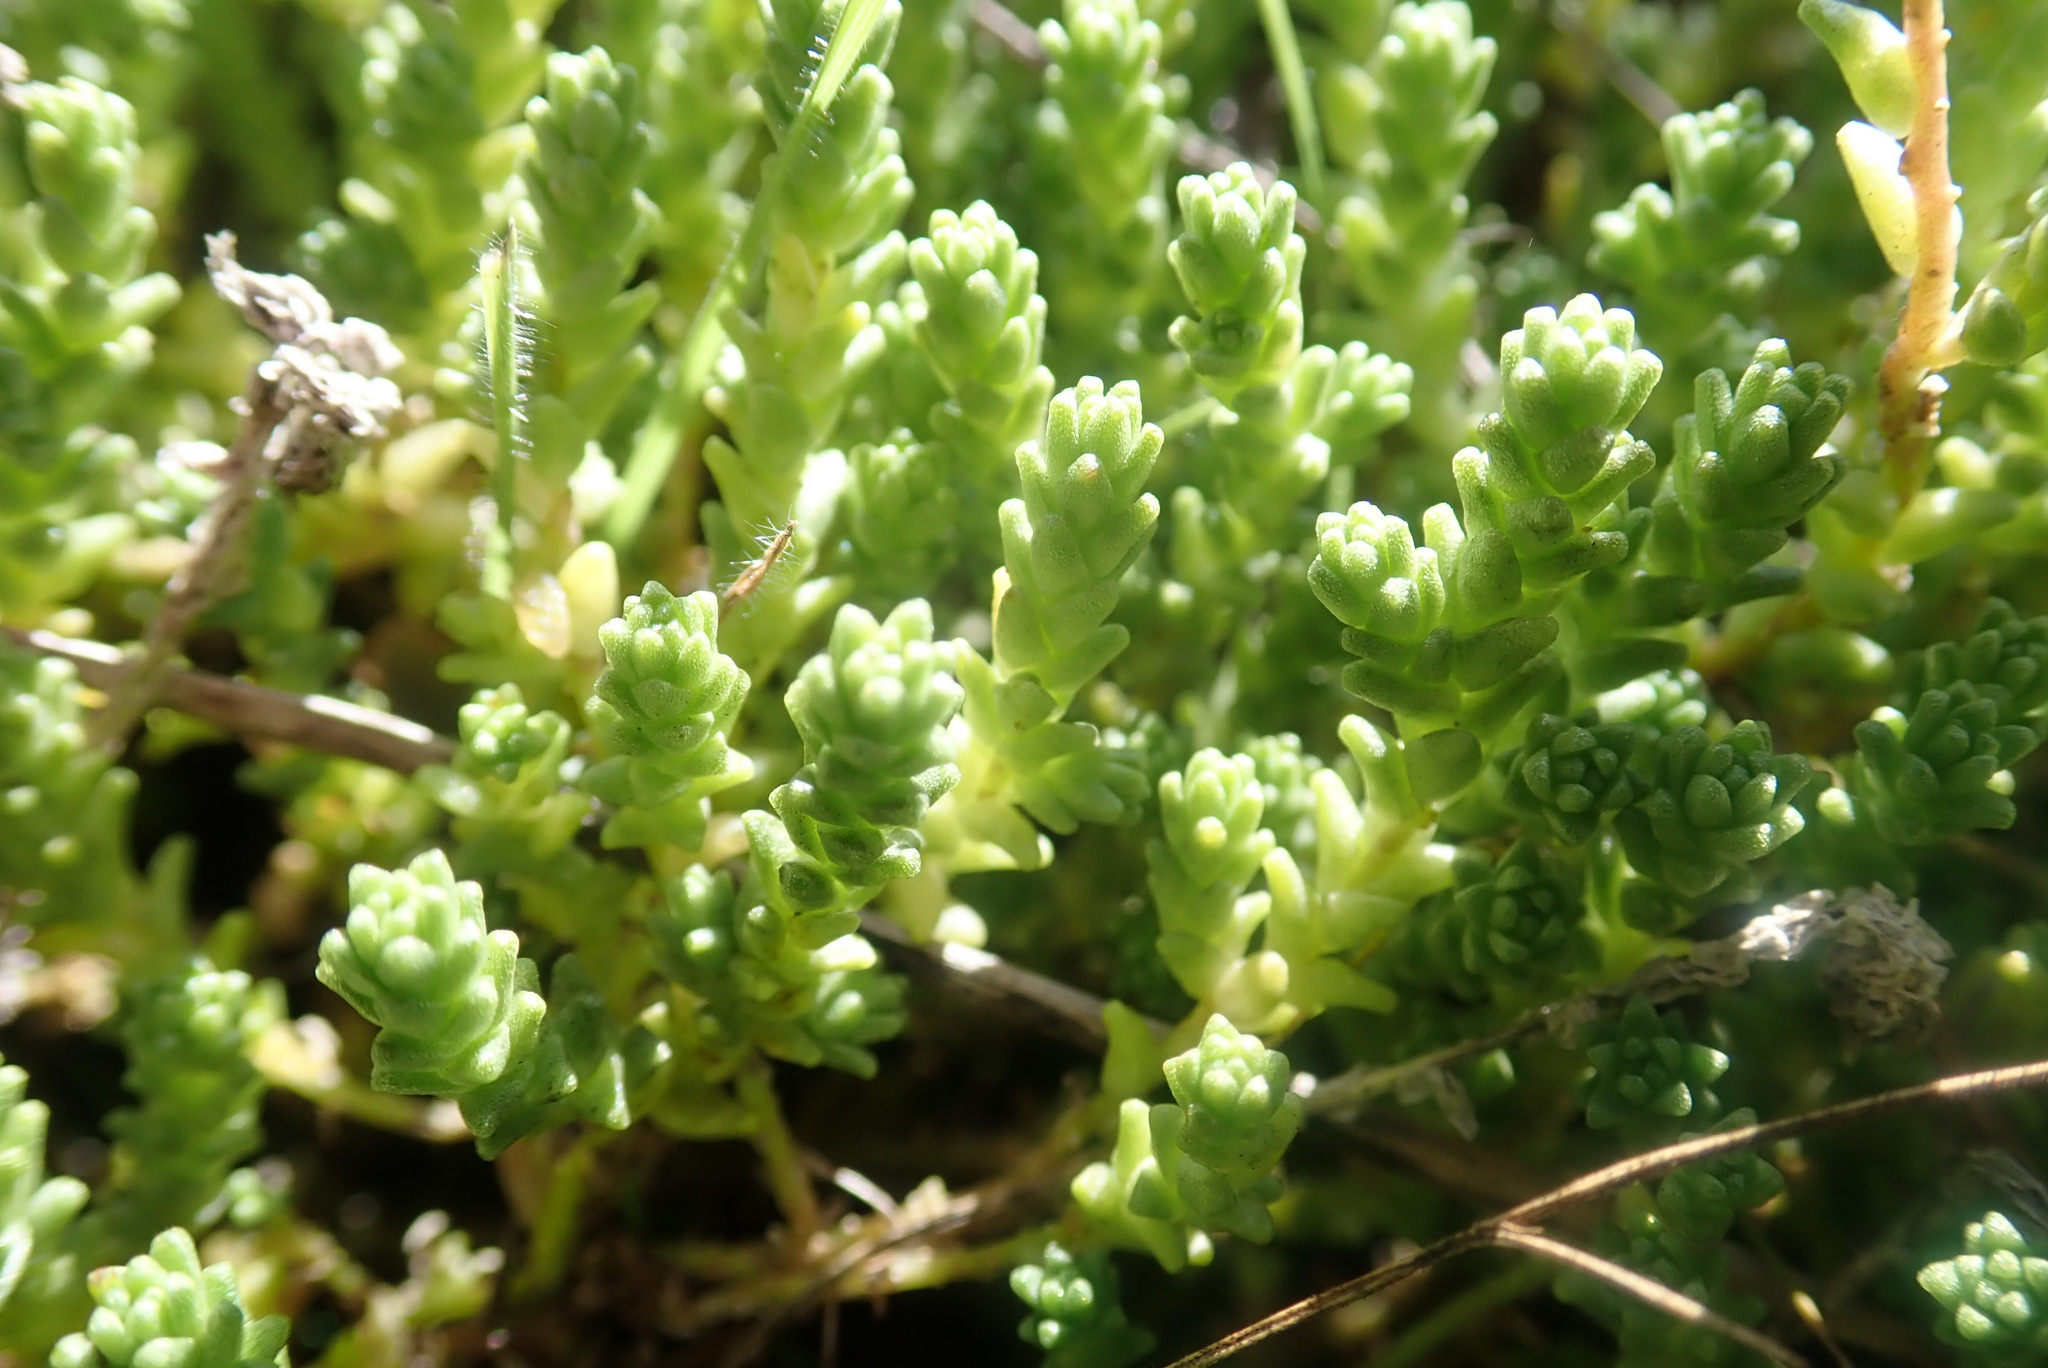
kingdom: Plantae
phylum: Tracheophyta
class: Magnoliopsida
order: Saxifragales
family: Crassulaceae
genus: Sedum
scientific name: Sedum acre
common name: Biting stonecrop
